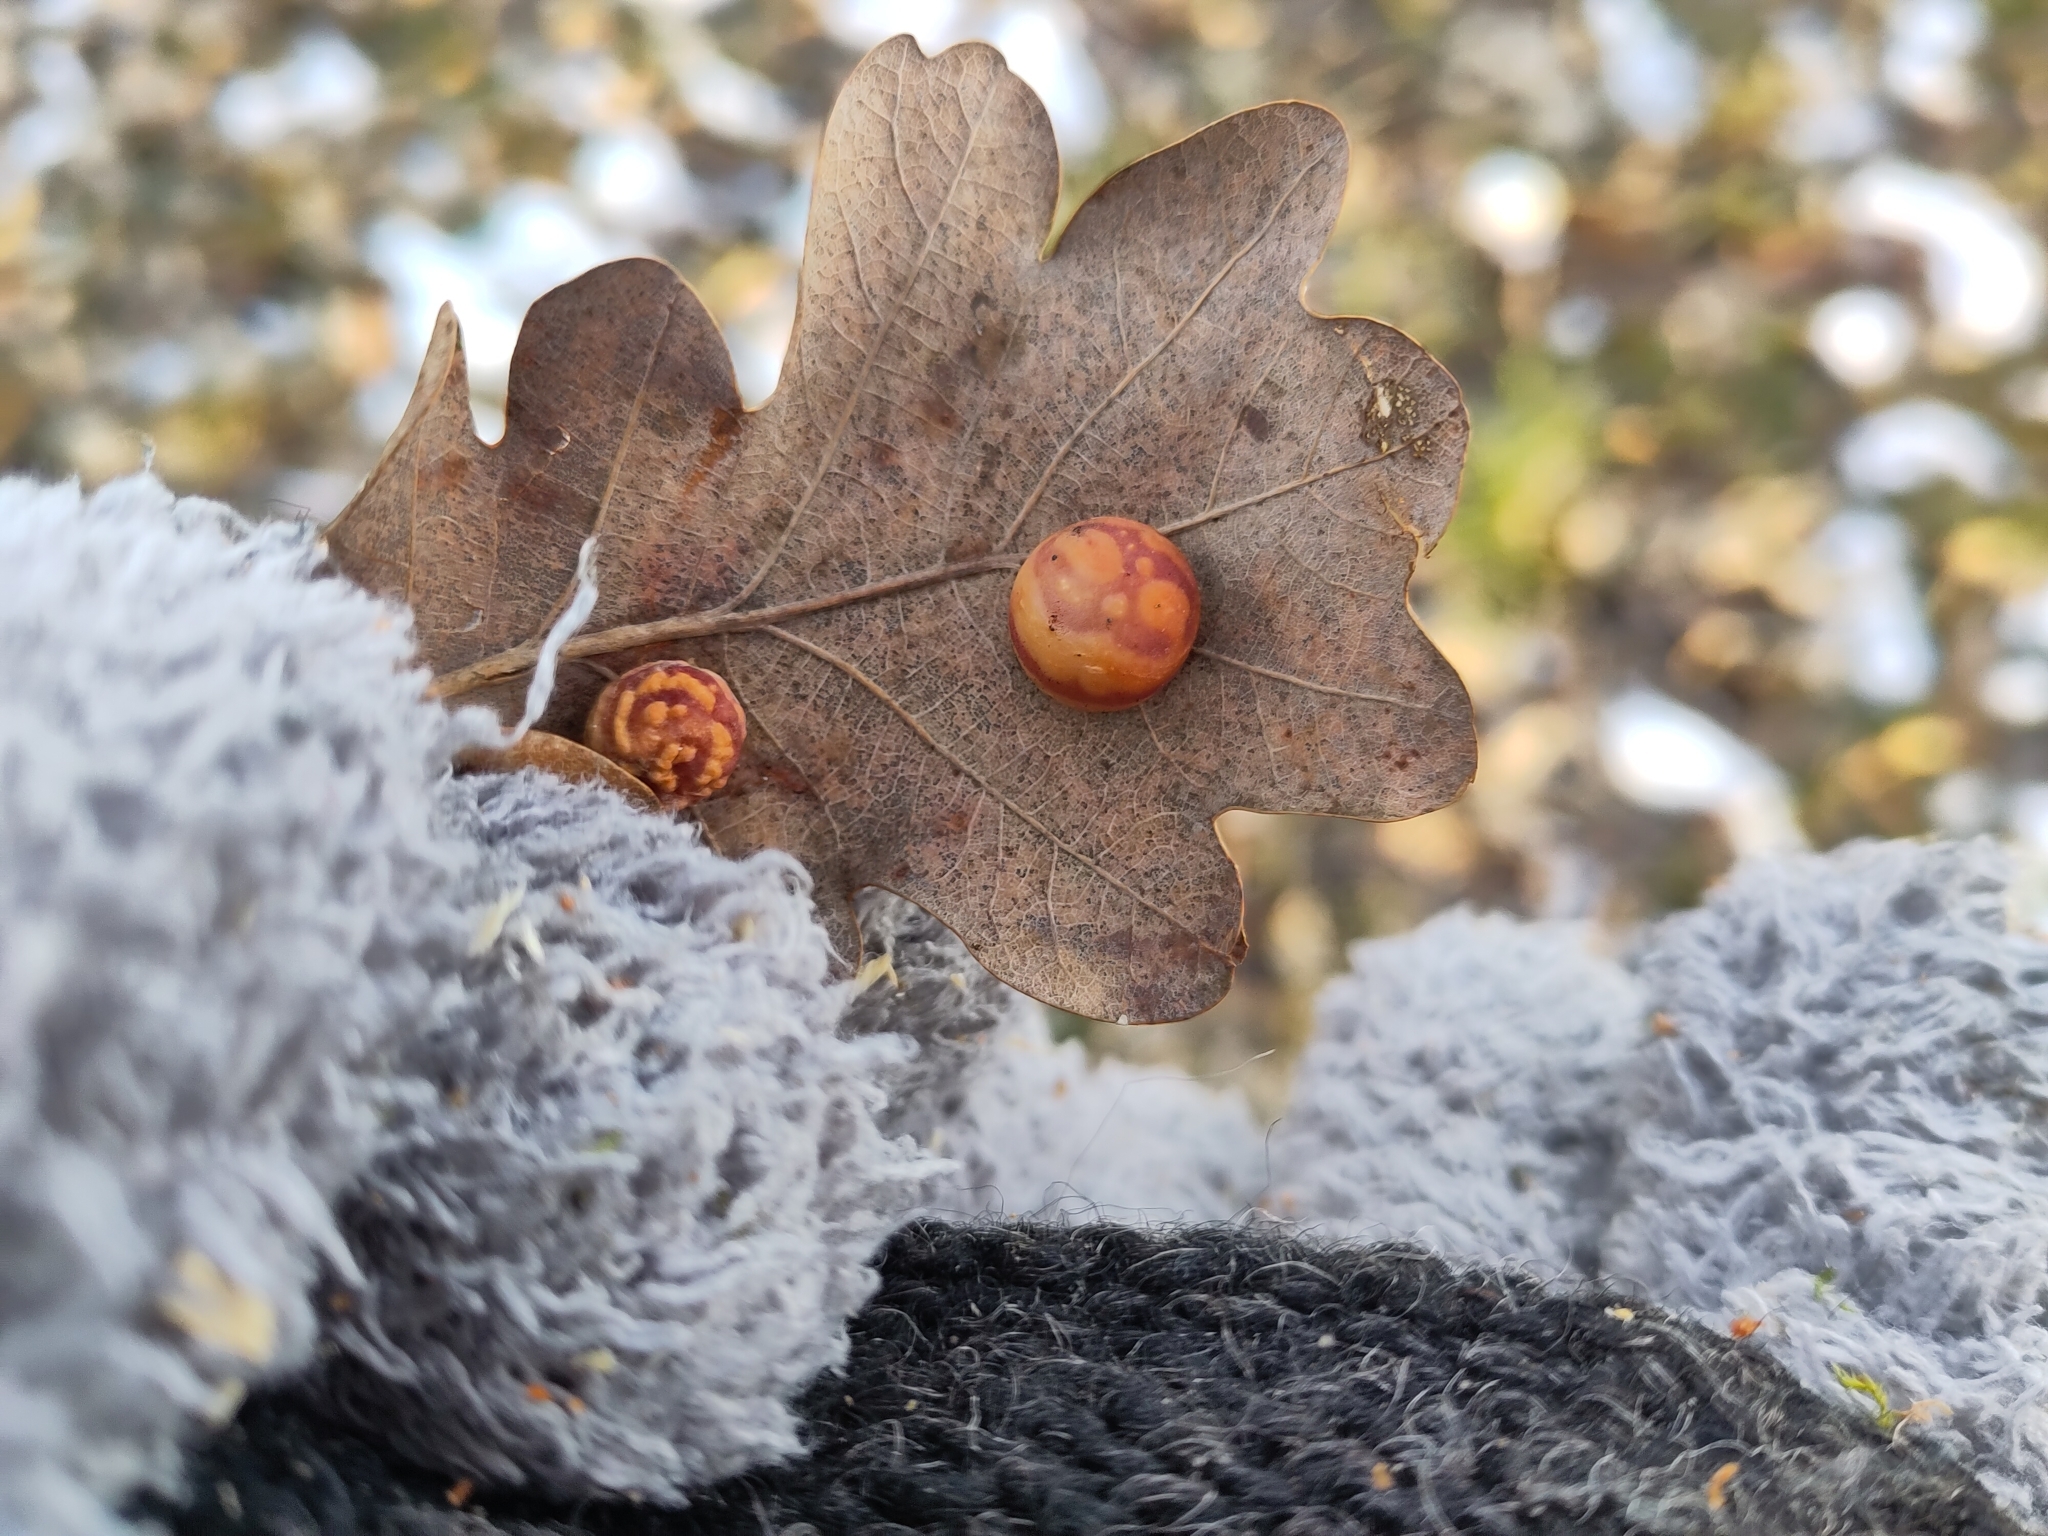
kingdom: Animalia
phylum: Arthropoda
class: Insecta
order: Hymenoptera
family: Cynipidae
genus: Cynips
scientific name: Cynips longiventris
